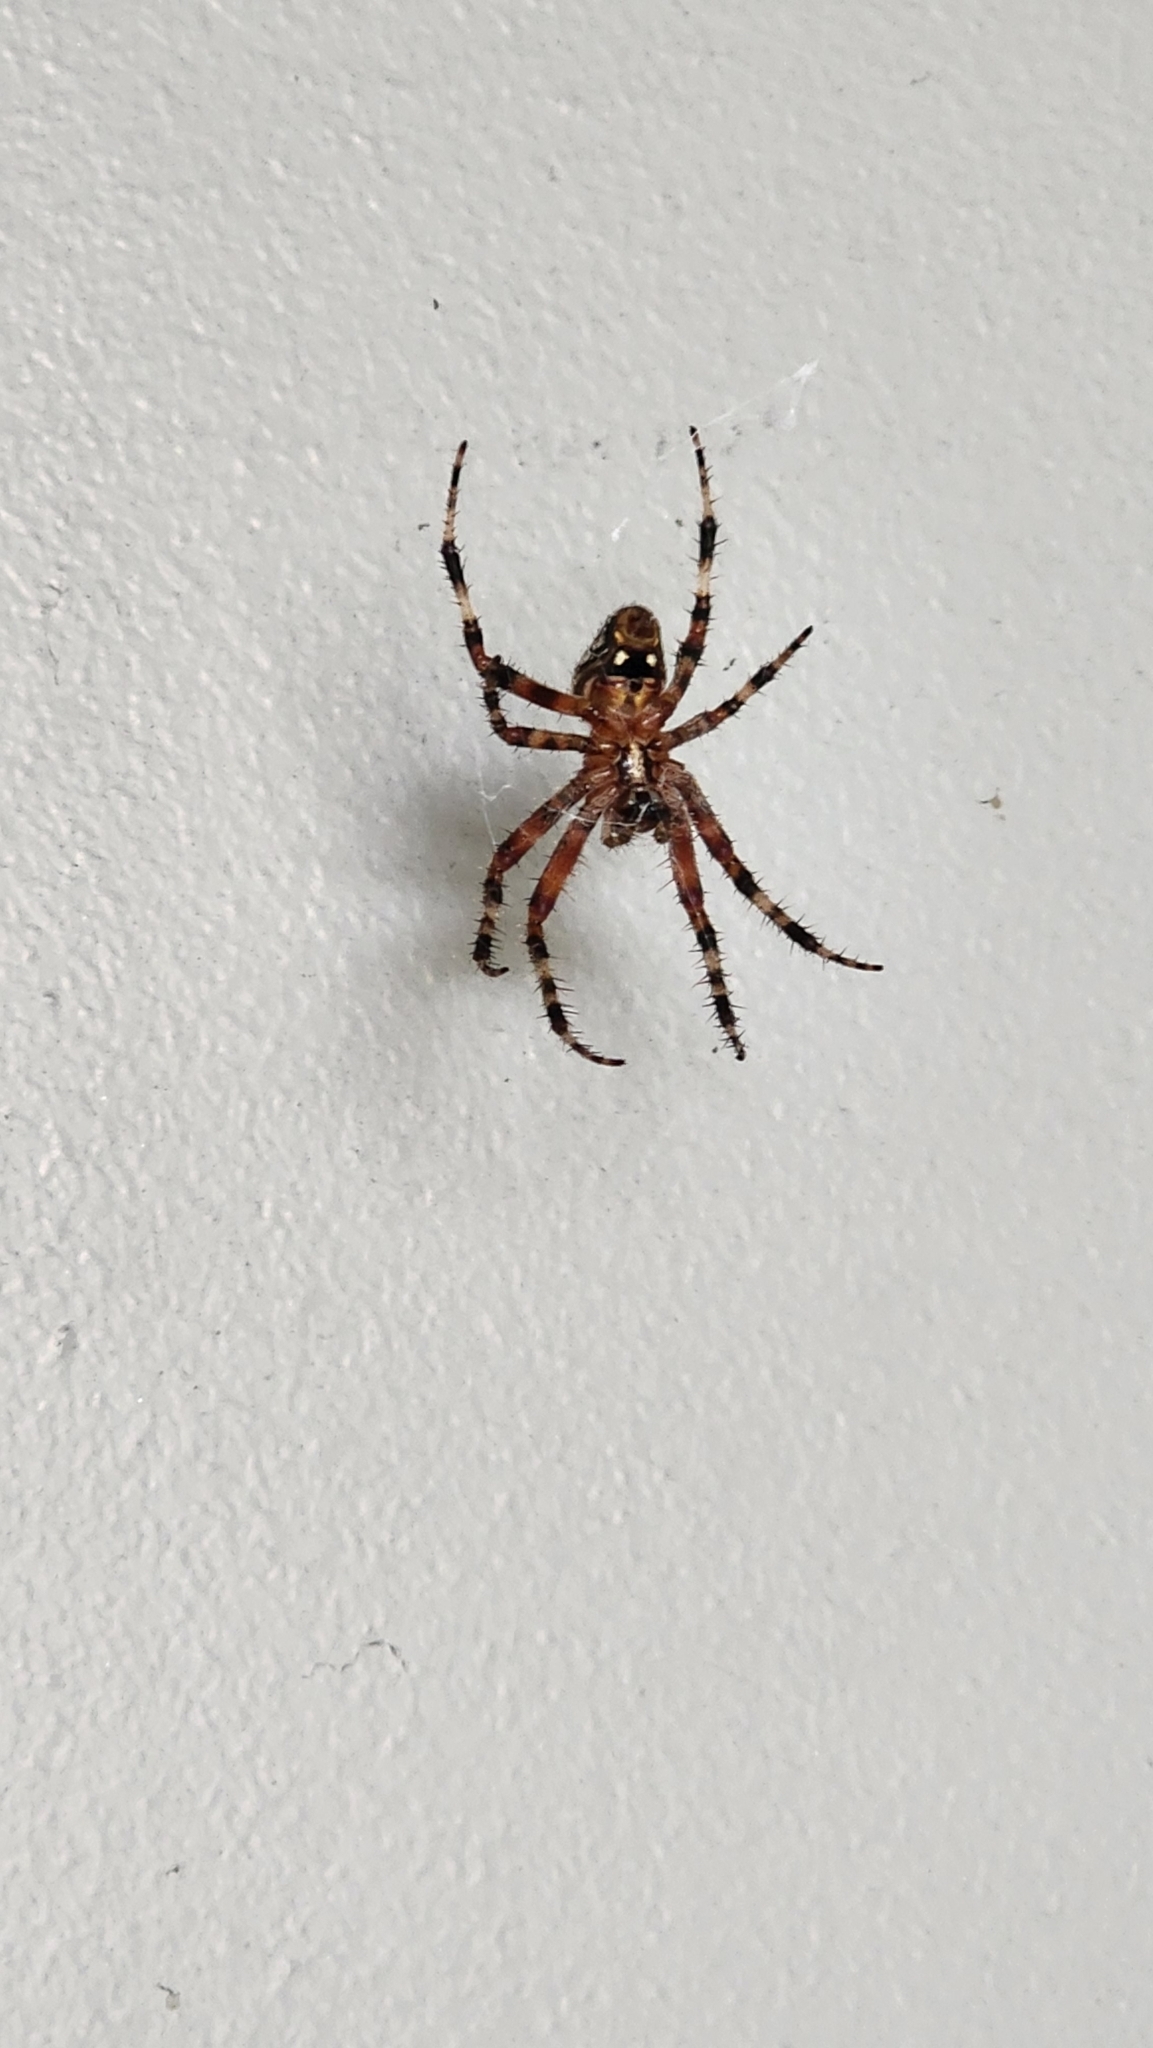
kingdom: Animalia
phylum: Arthropoda
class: Arachnida
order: Araneae
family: Araneidae
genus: Neoscona
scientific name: Neoscona crucifera
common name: Spotted orbweaver
